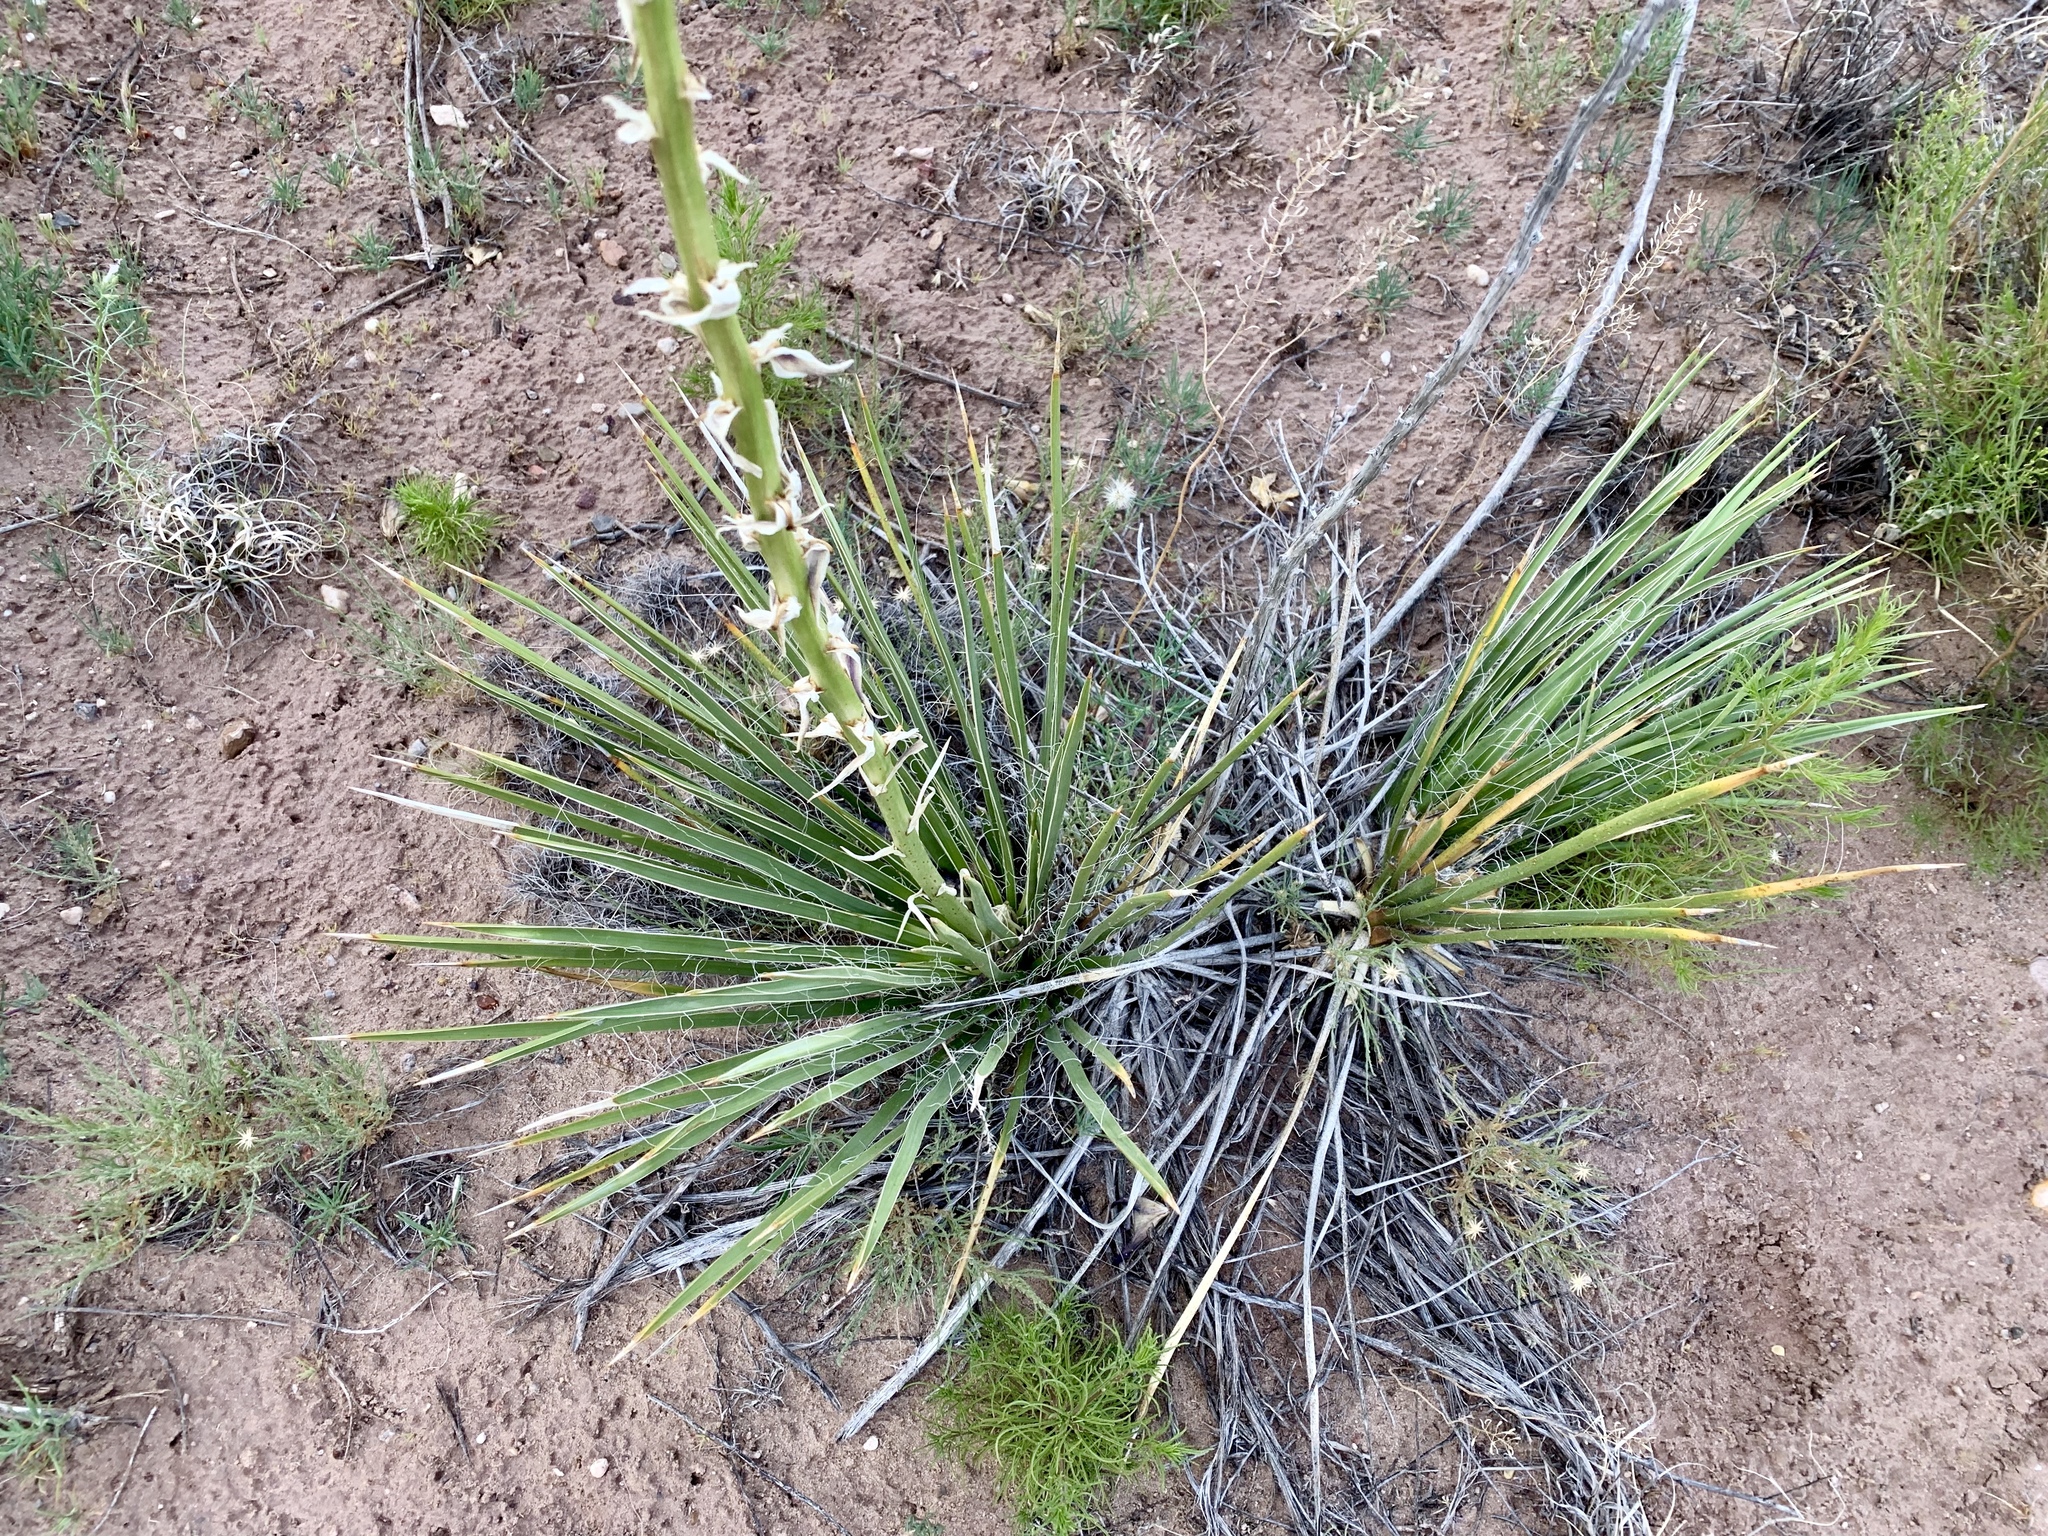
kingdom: Plantae
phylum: Tracheophyta
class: Liliopsida
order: Asparagales
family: Asparagaceae
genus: Yucca
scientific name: Yucca angustissima
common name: Narrowleaf yucca
